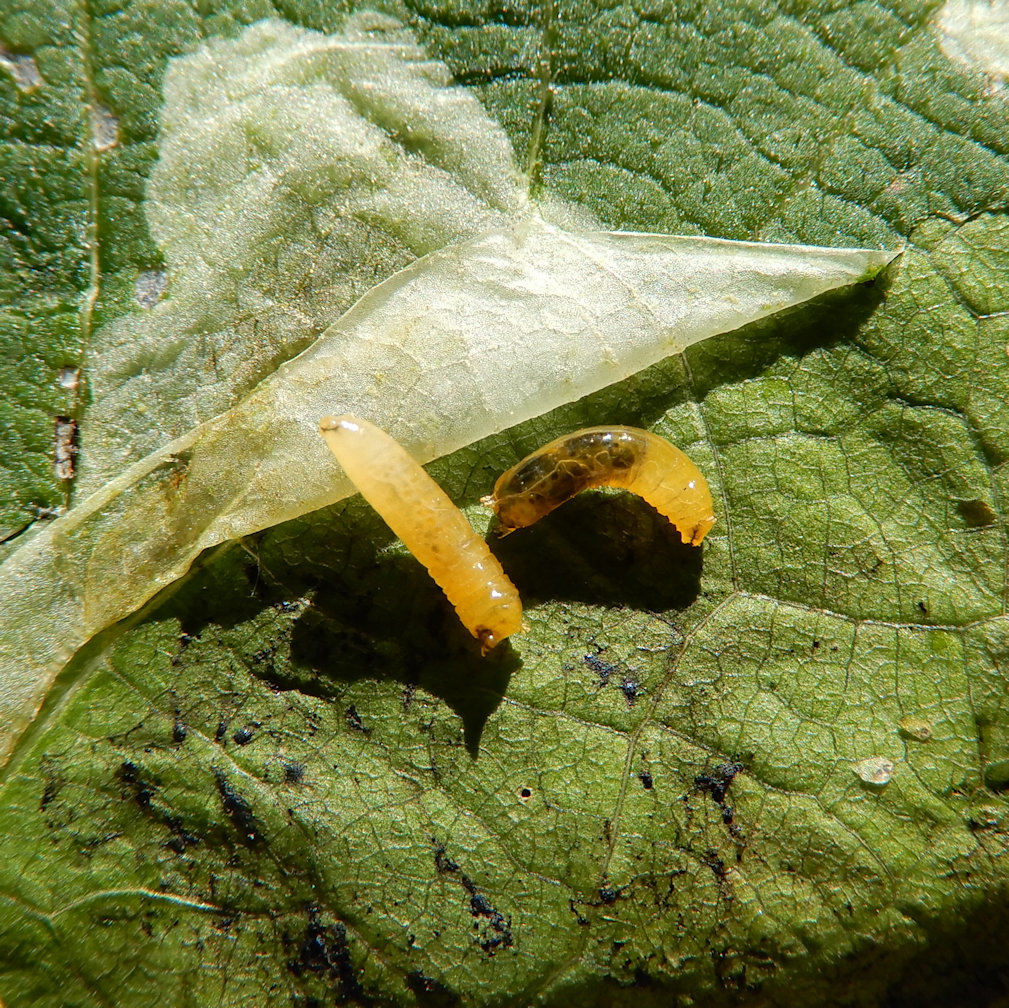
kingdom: Animalia
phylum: Arthropoda
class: Insecta
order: Diptera
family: Agromyzidae
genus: Calycomyza
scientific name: Calycomyza flavinotum
